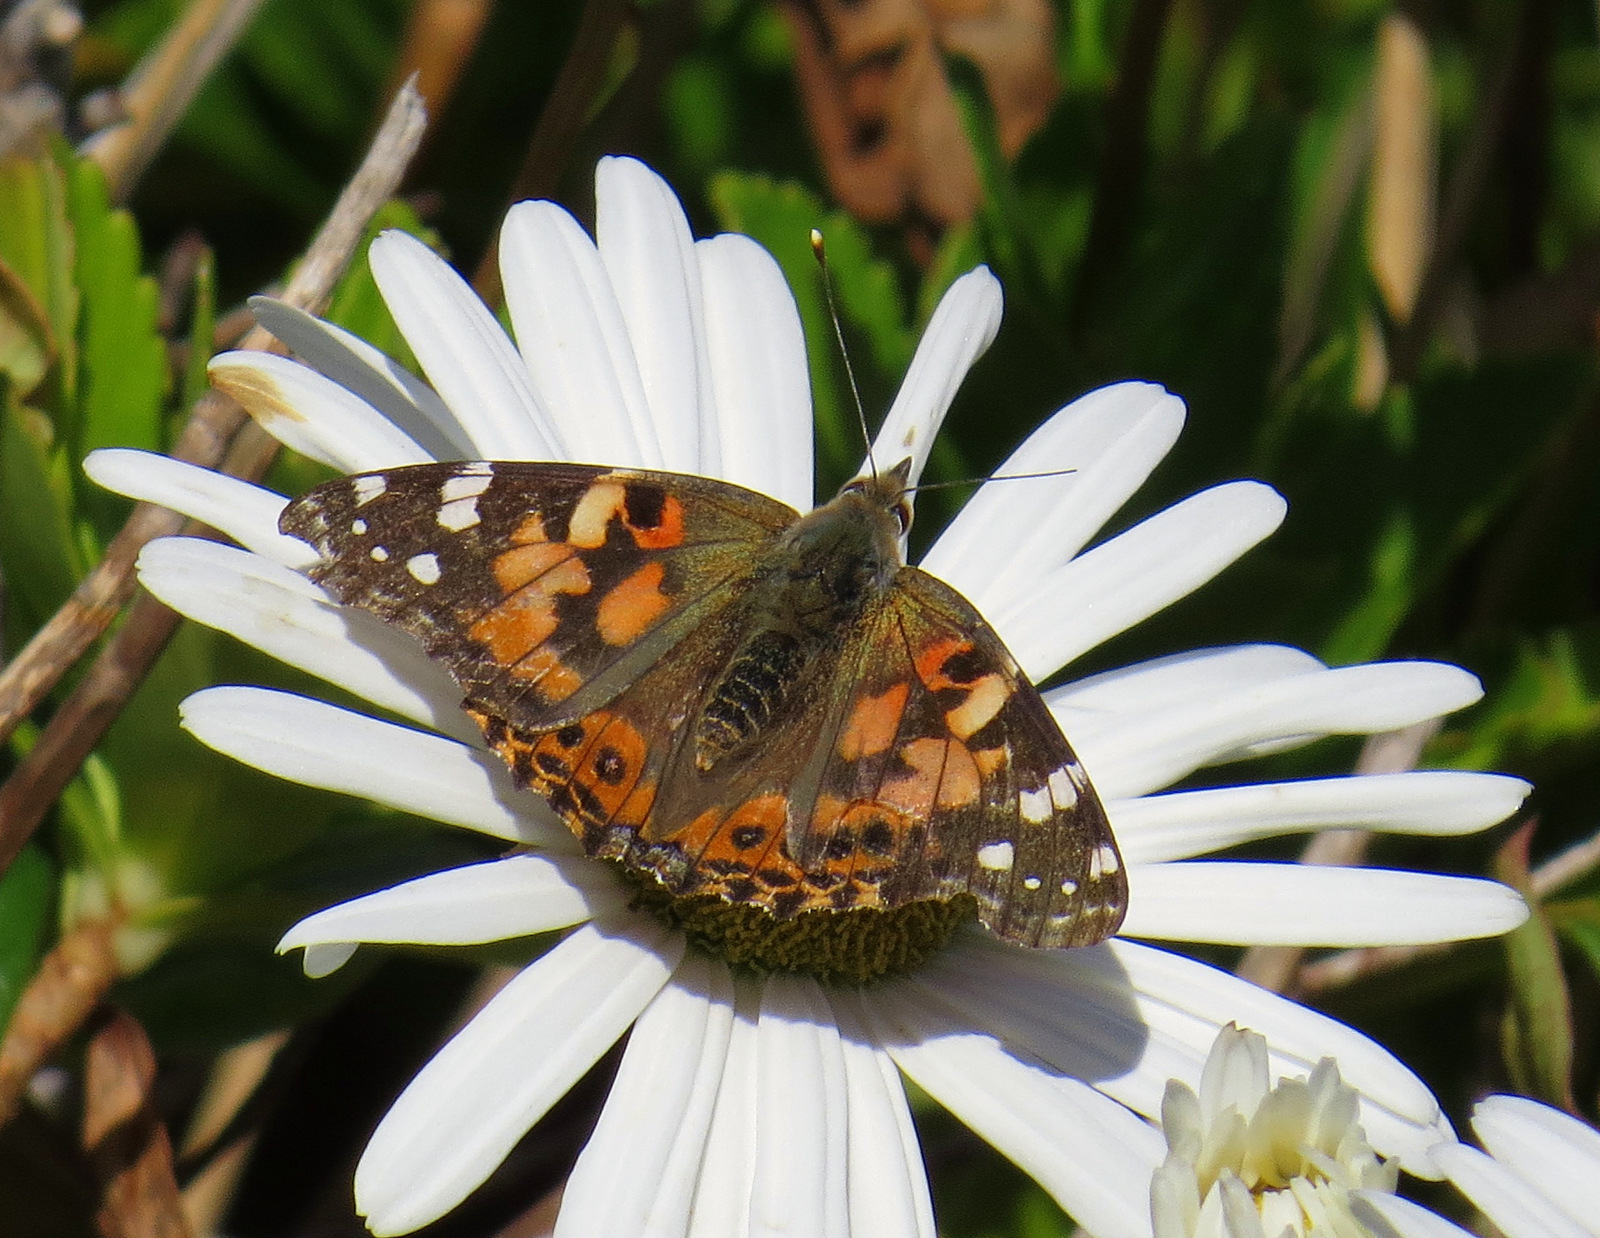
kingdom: Animalia
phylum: Arthropoda
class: Insecta
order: Lepidoptera
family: Nymphalidae
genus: Vanessa
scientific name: Vanessa cardui
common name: Painted lady
